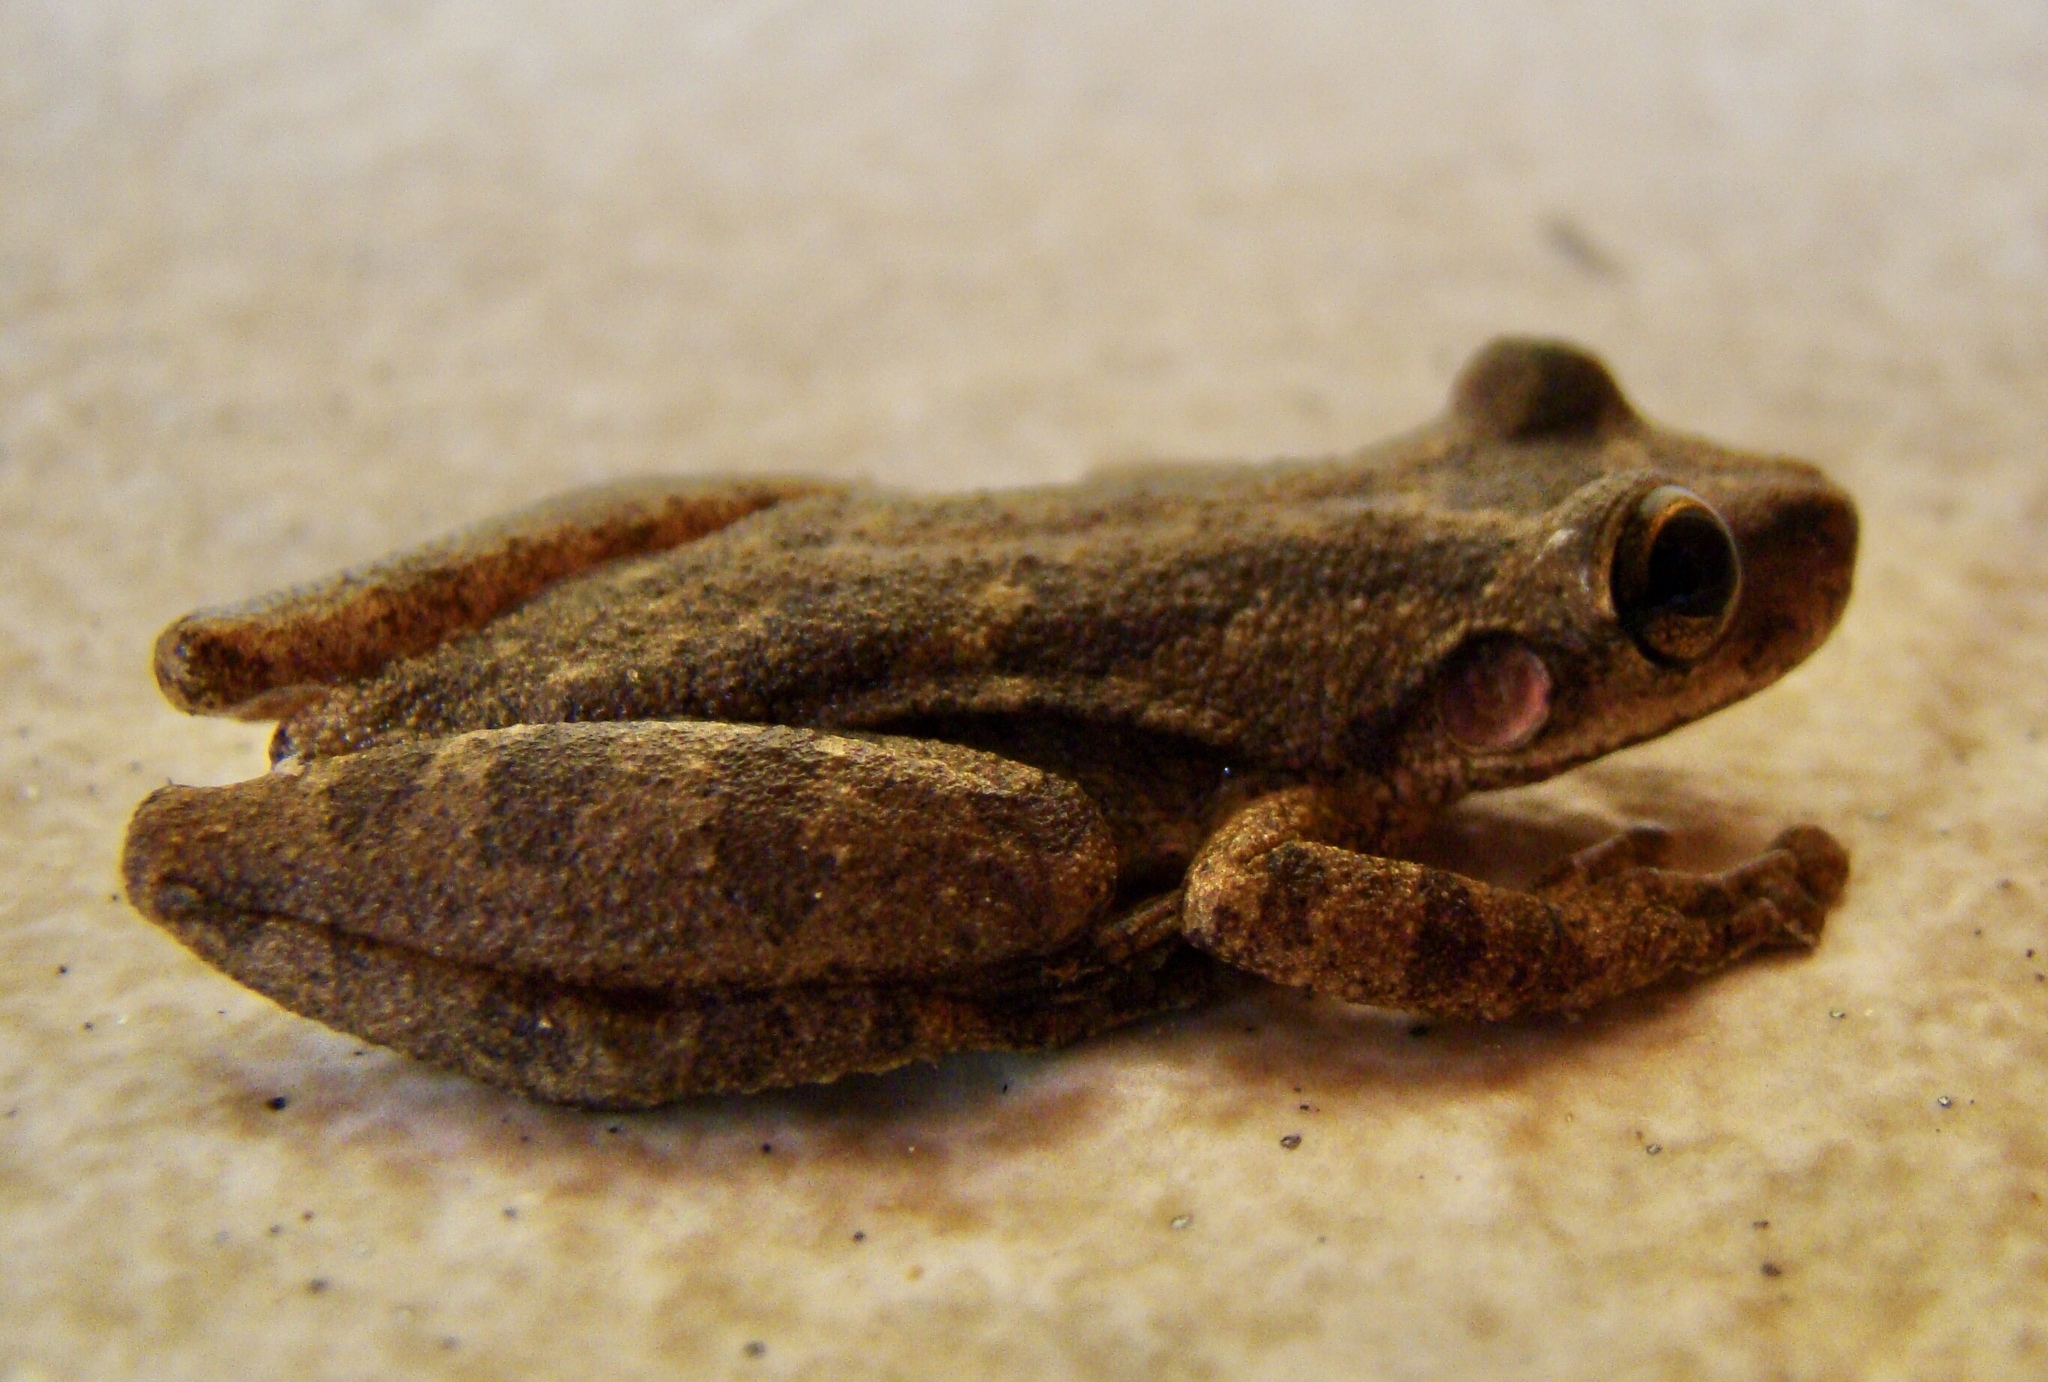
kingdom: Animalia
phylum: Chordata
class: Amphibia
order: Anura
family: Hylidae
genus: Scinax
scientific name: Scinax x-signatus
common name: Venezuela snouted treefrog
